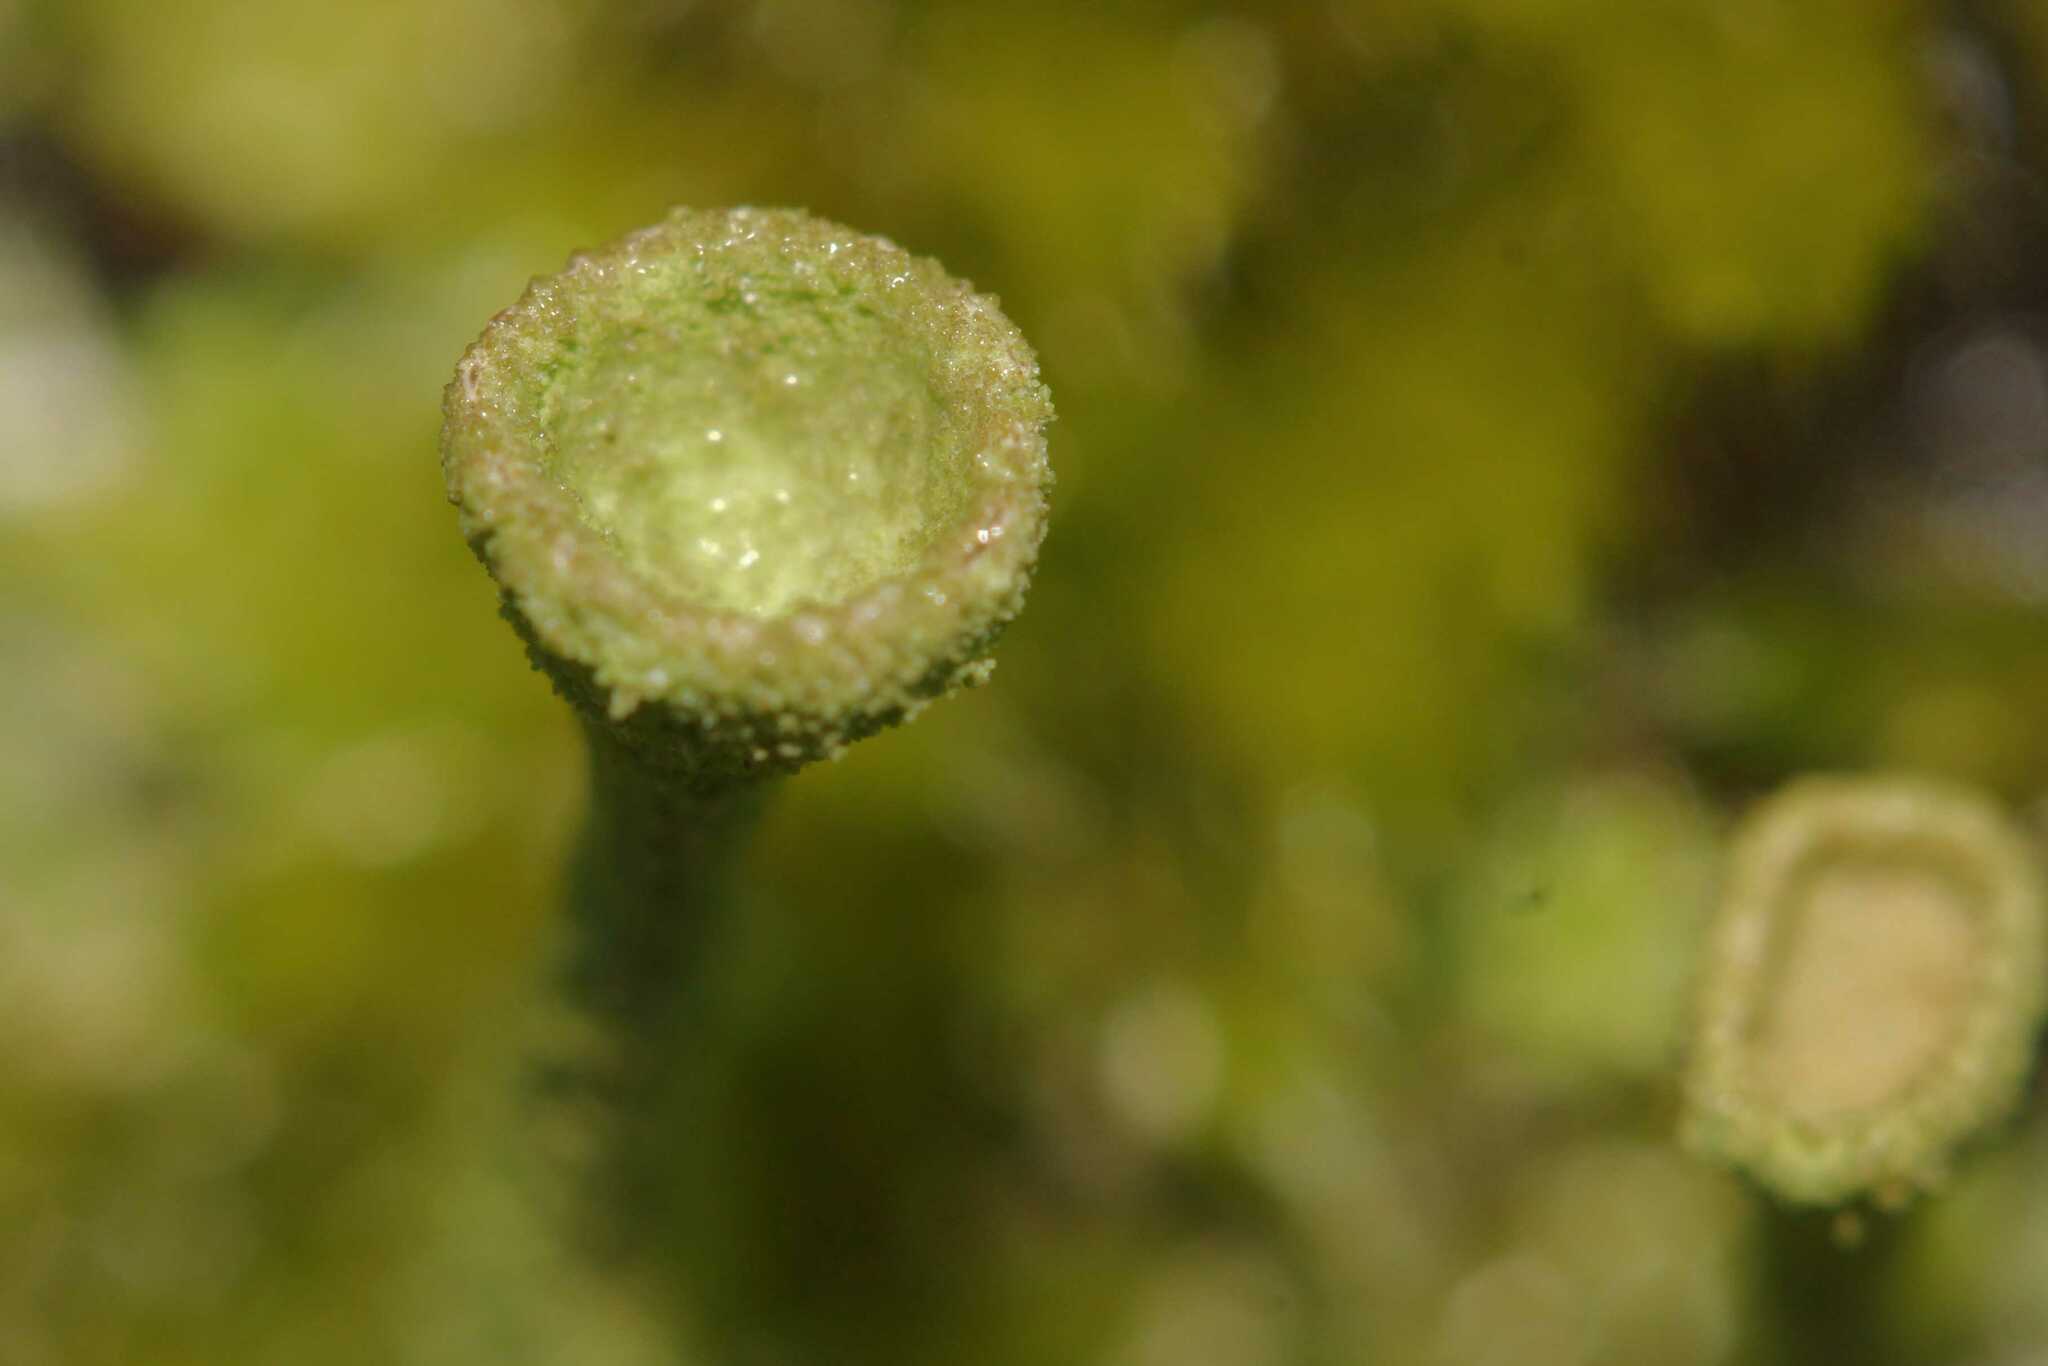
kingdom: Fungi
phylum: Ascomycota
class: Lecanoromycetes
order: Lecanorales
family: Cladoniaceae
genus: Cladonia
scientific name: Cladonia
